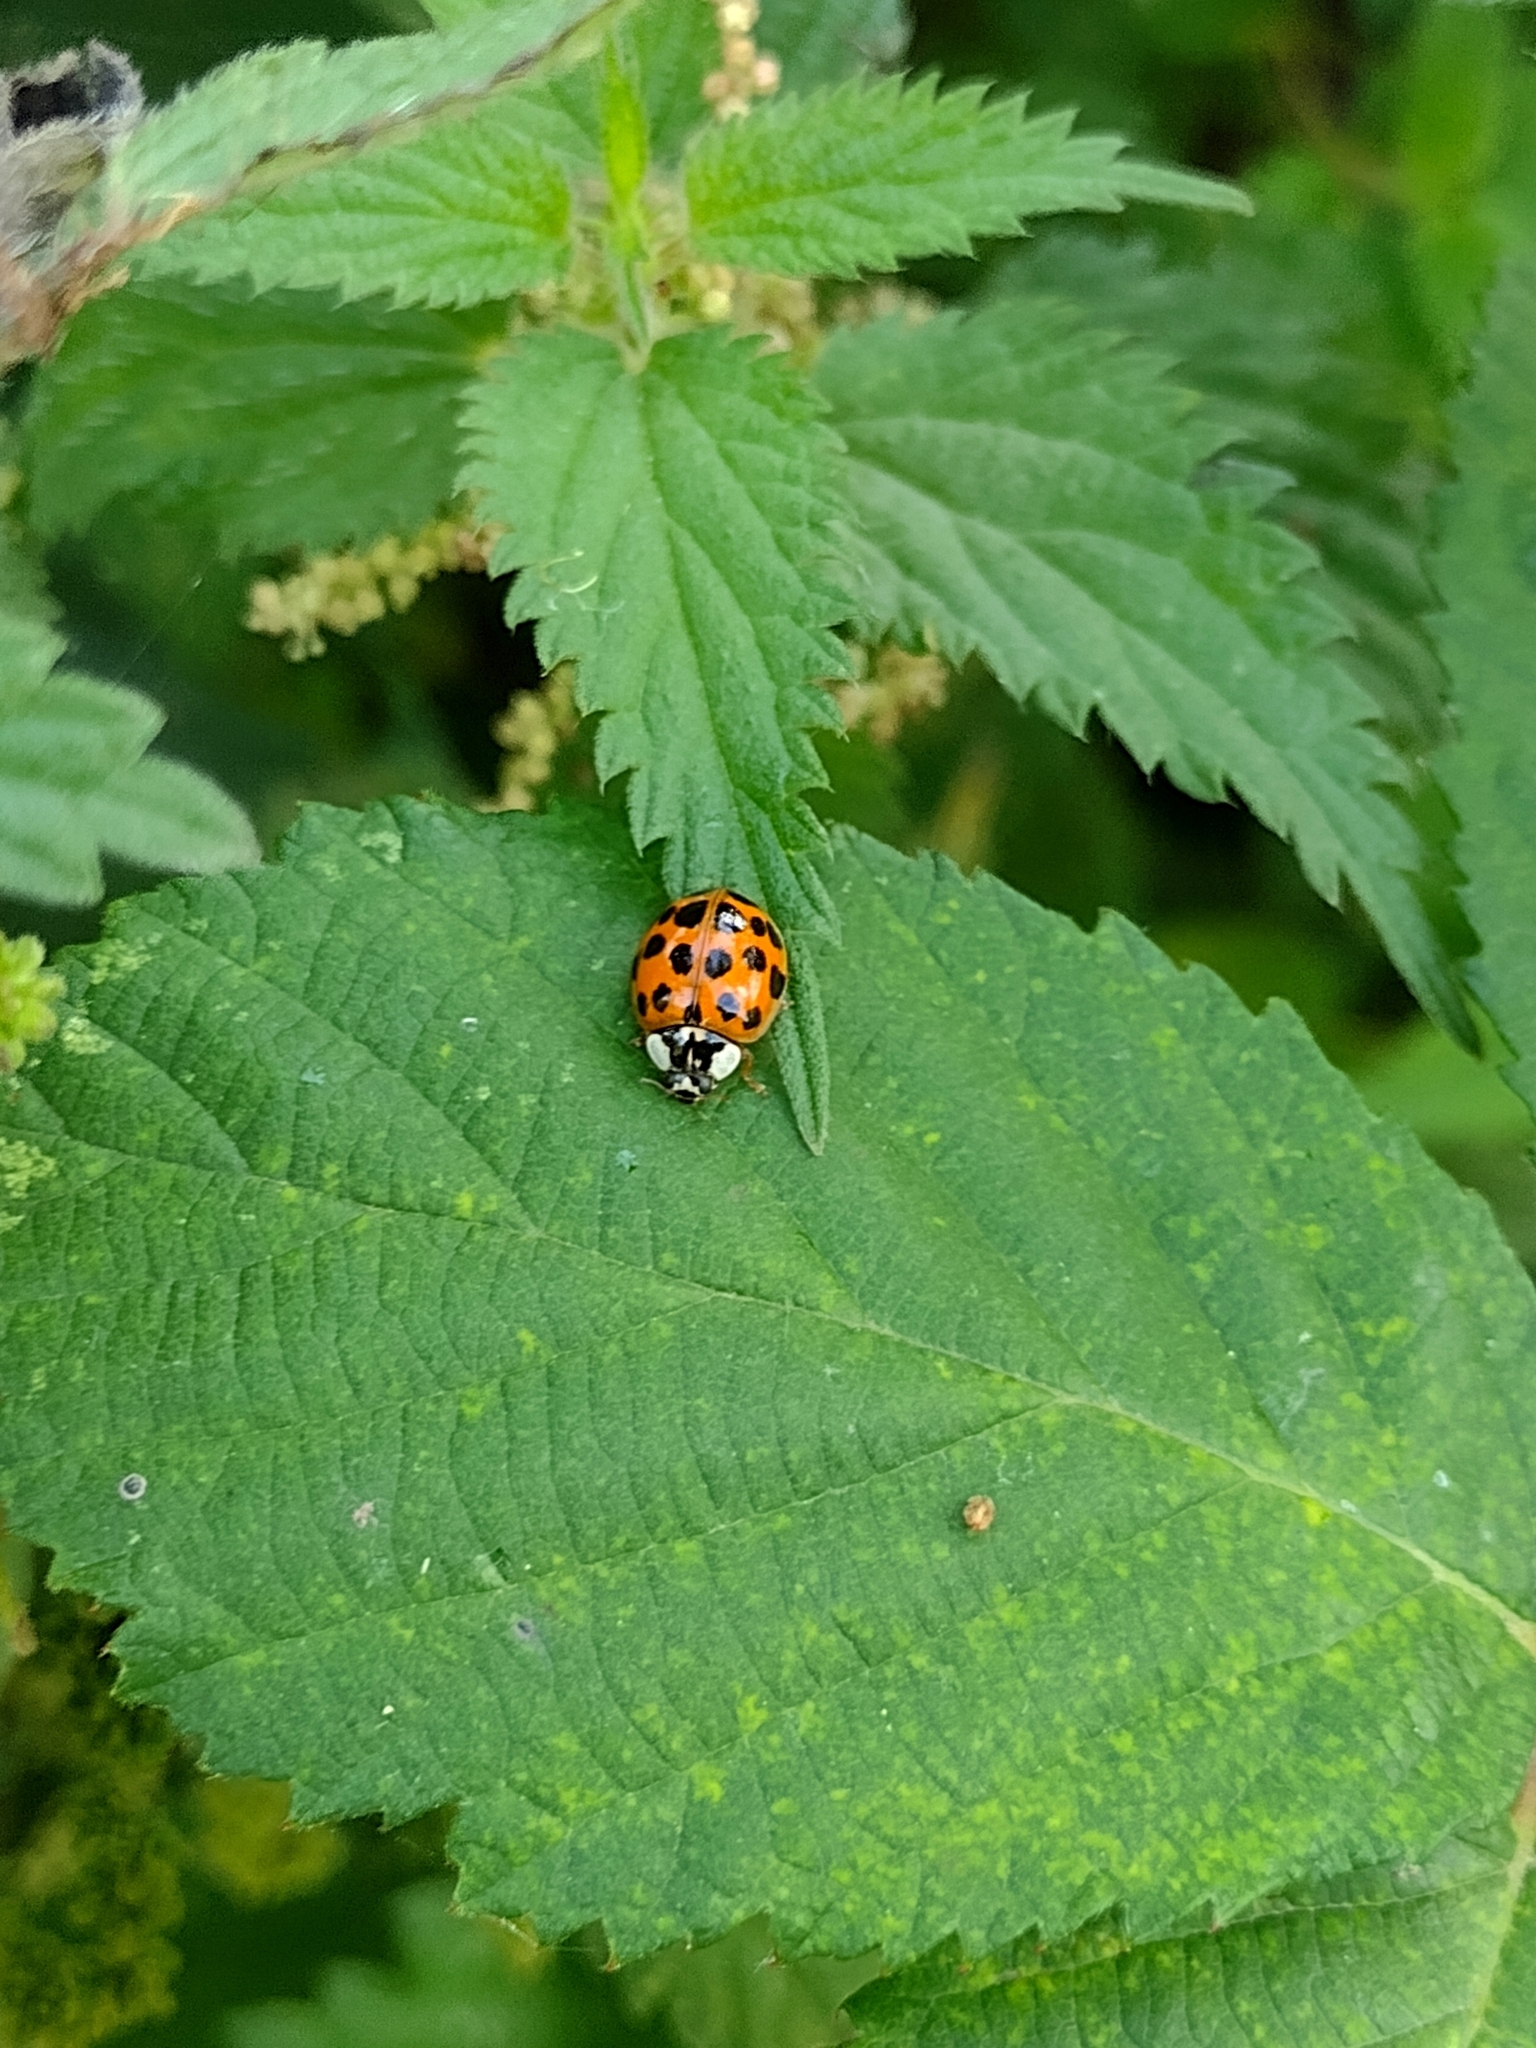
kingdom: Animalia
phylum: Arthropoda
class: Insecta
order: Coleoptera
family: Coccinellidae
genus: Harmonia
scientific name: Harmonia axyridis
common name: Harlequin ladybird
